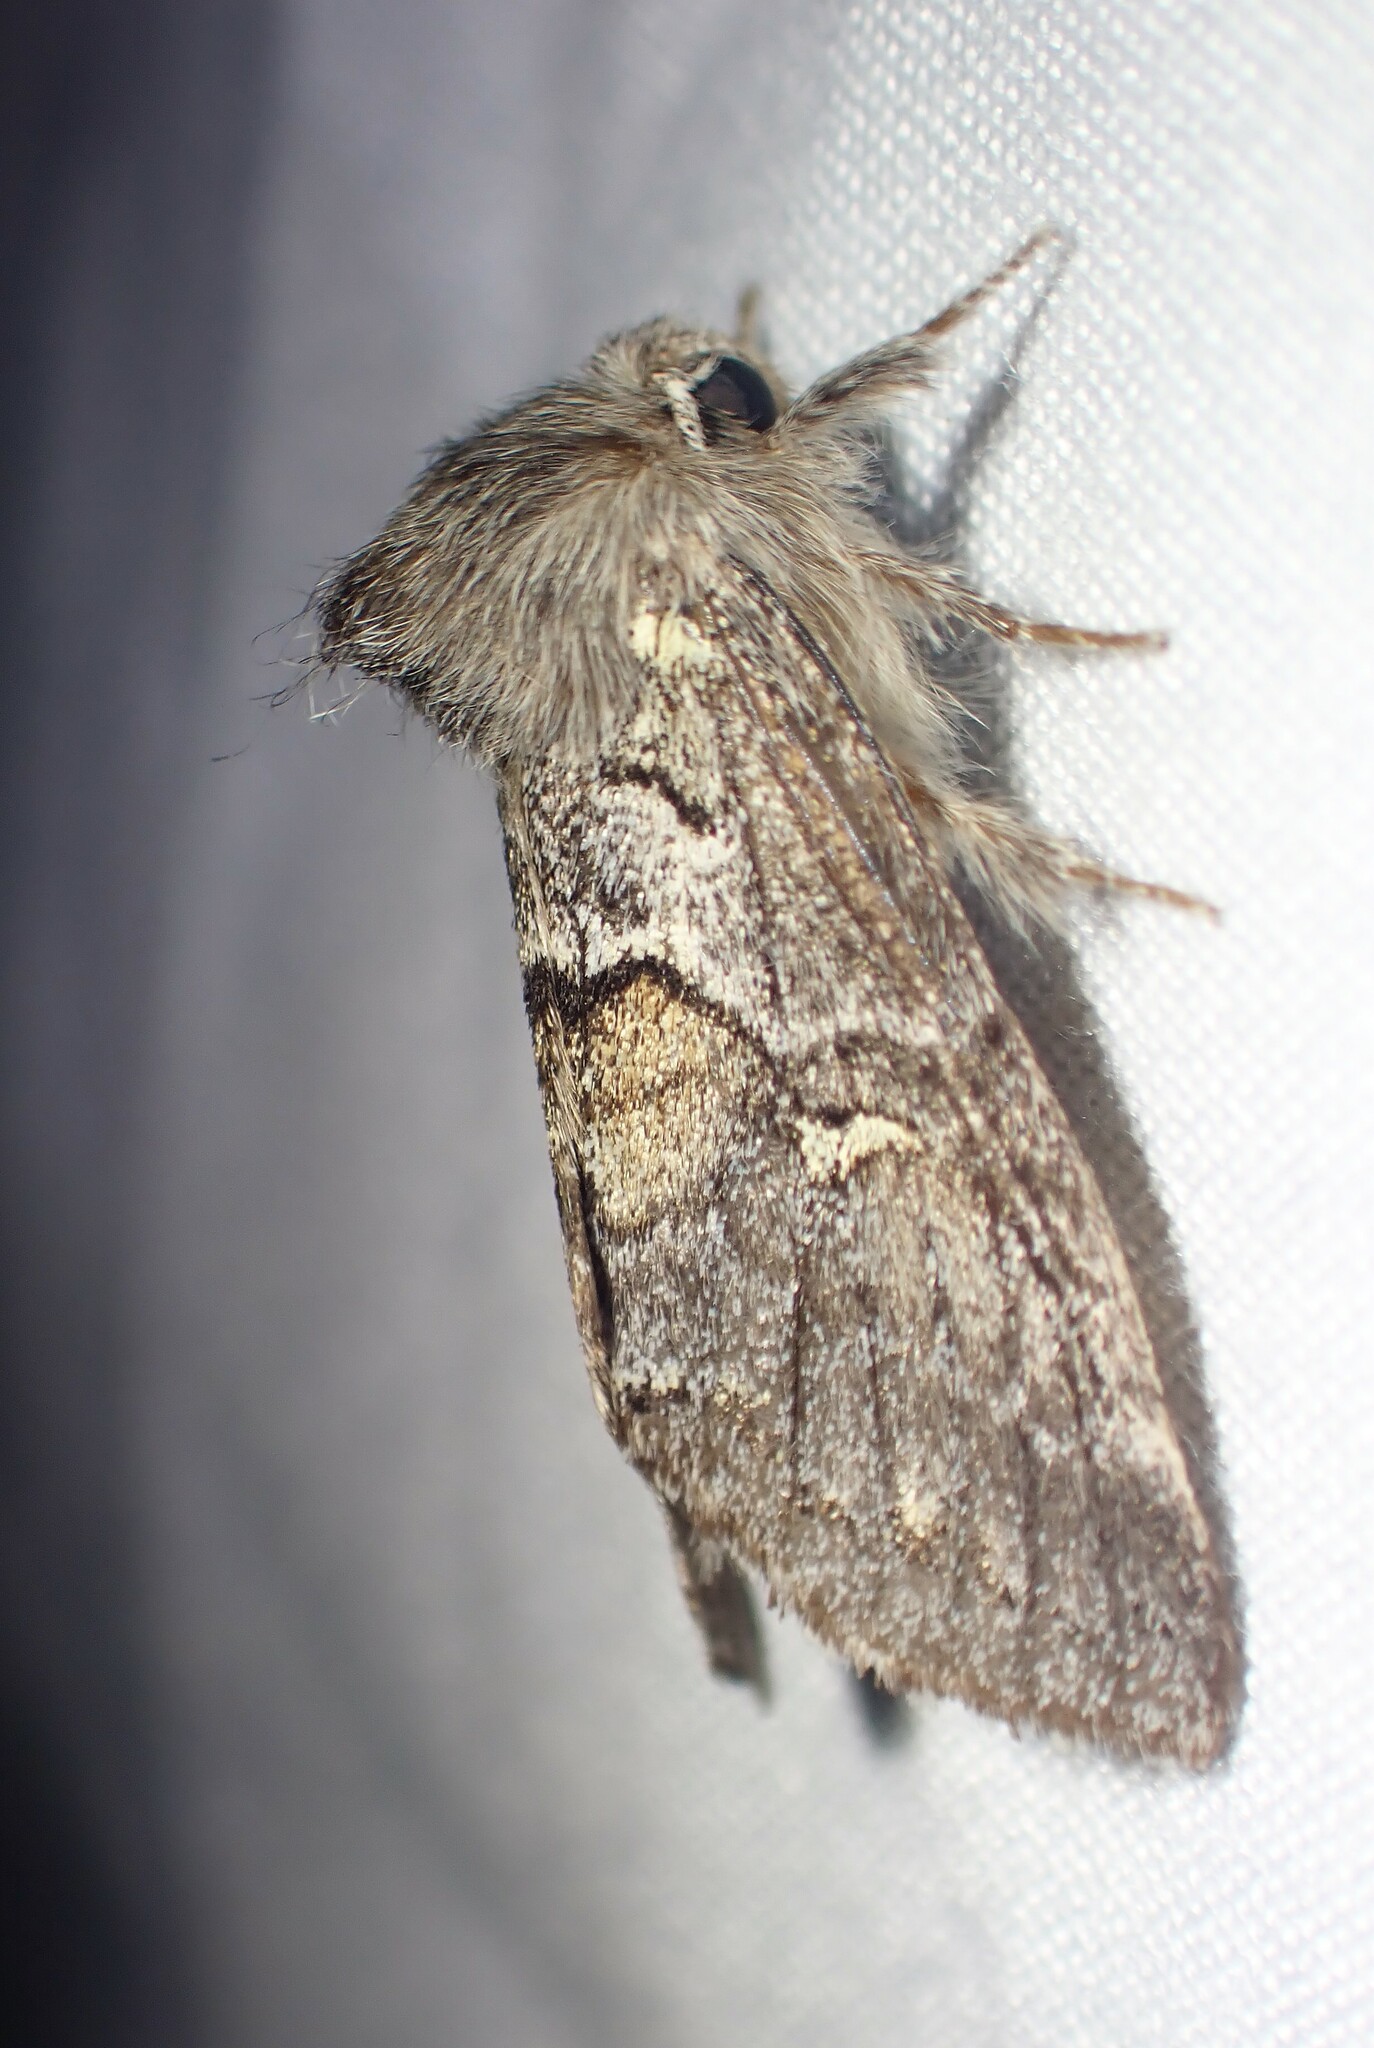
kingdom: Animalia
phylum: Arthropoda
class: Insecta
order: Lepidoptera
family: Notodontidae
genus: Gluphisia
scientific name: Gluphisia avimacula
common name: Four-spotted gluphisia moth
